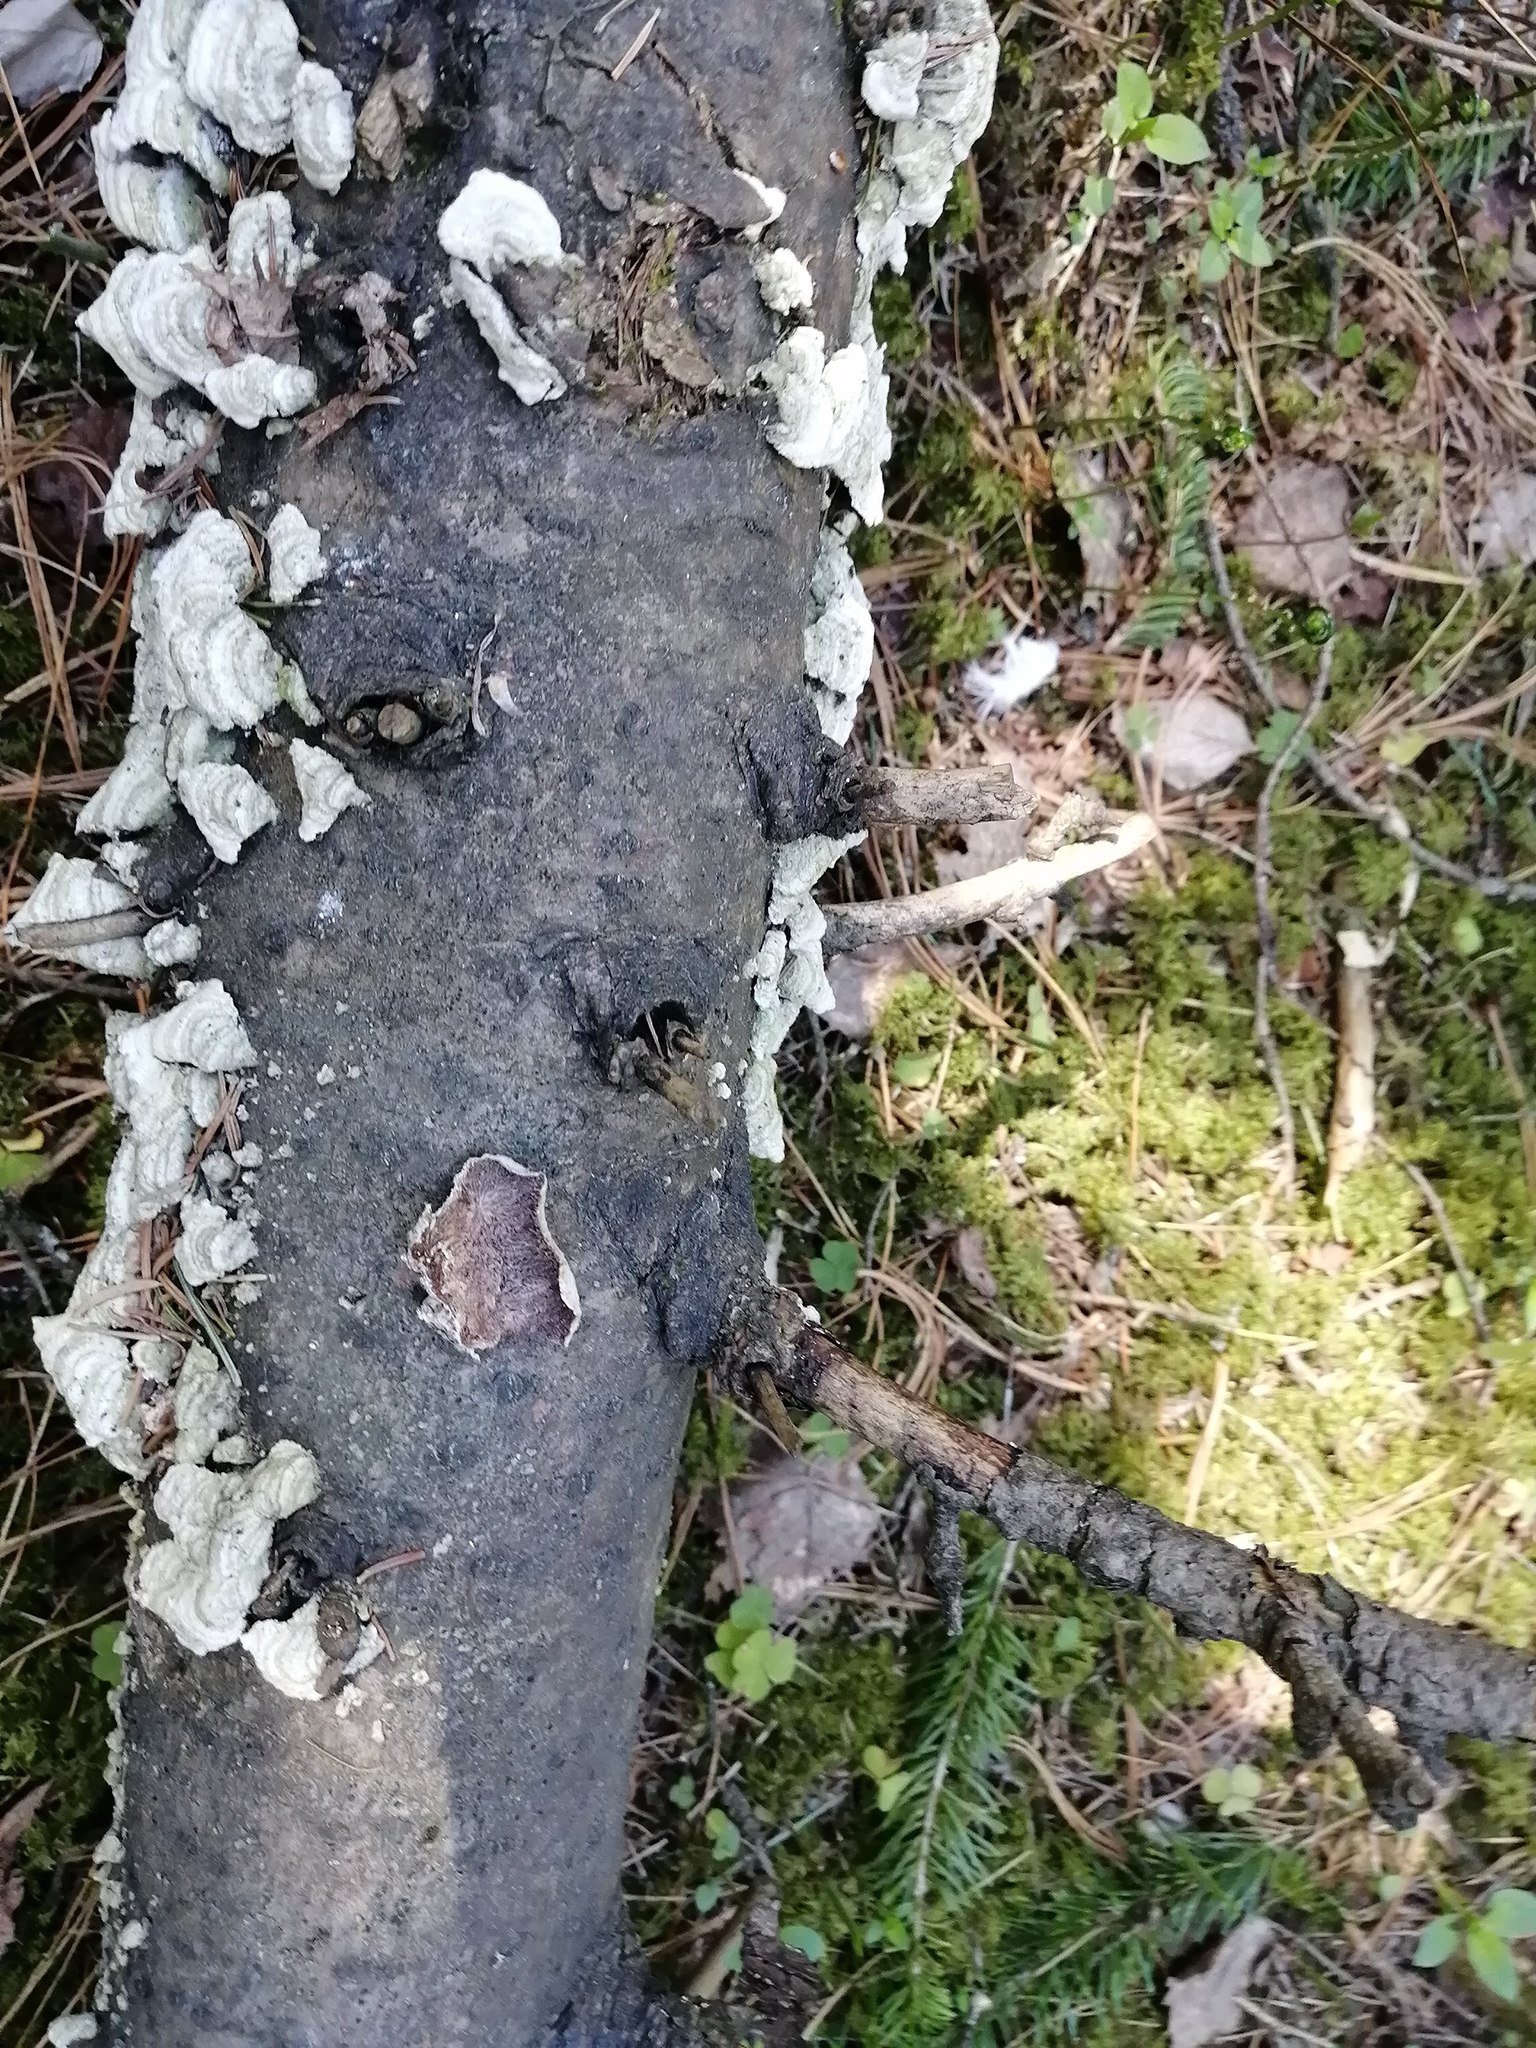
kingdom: Fungi
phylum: Basidiomycota
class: Agaricomycetes
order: Hymenochaetales
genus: Trichaptum
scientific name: Trichaptum fuscoviolaceum
